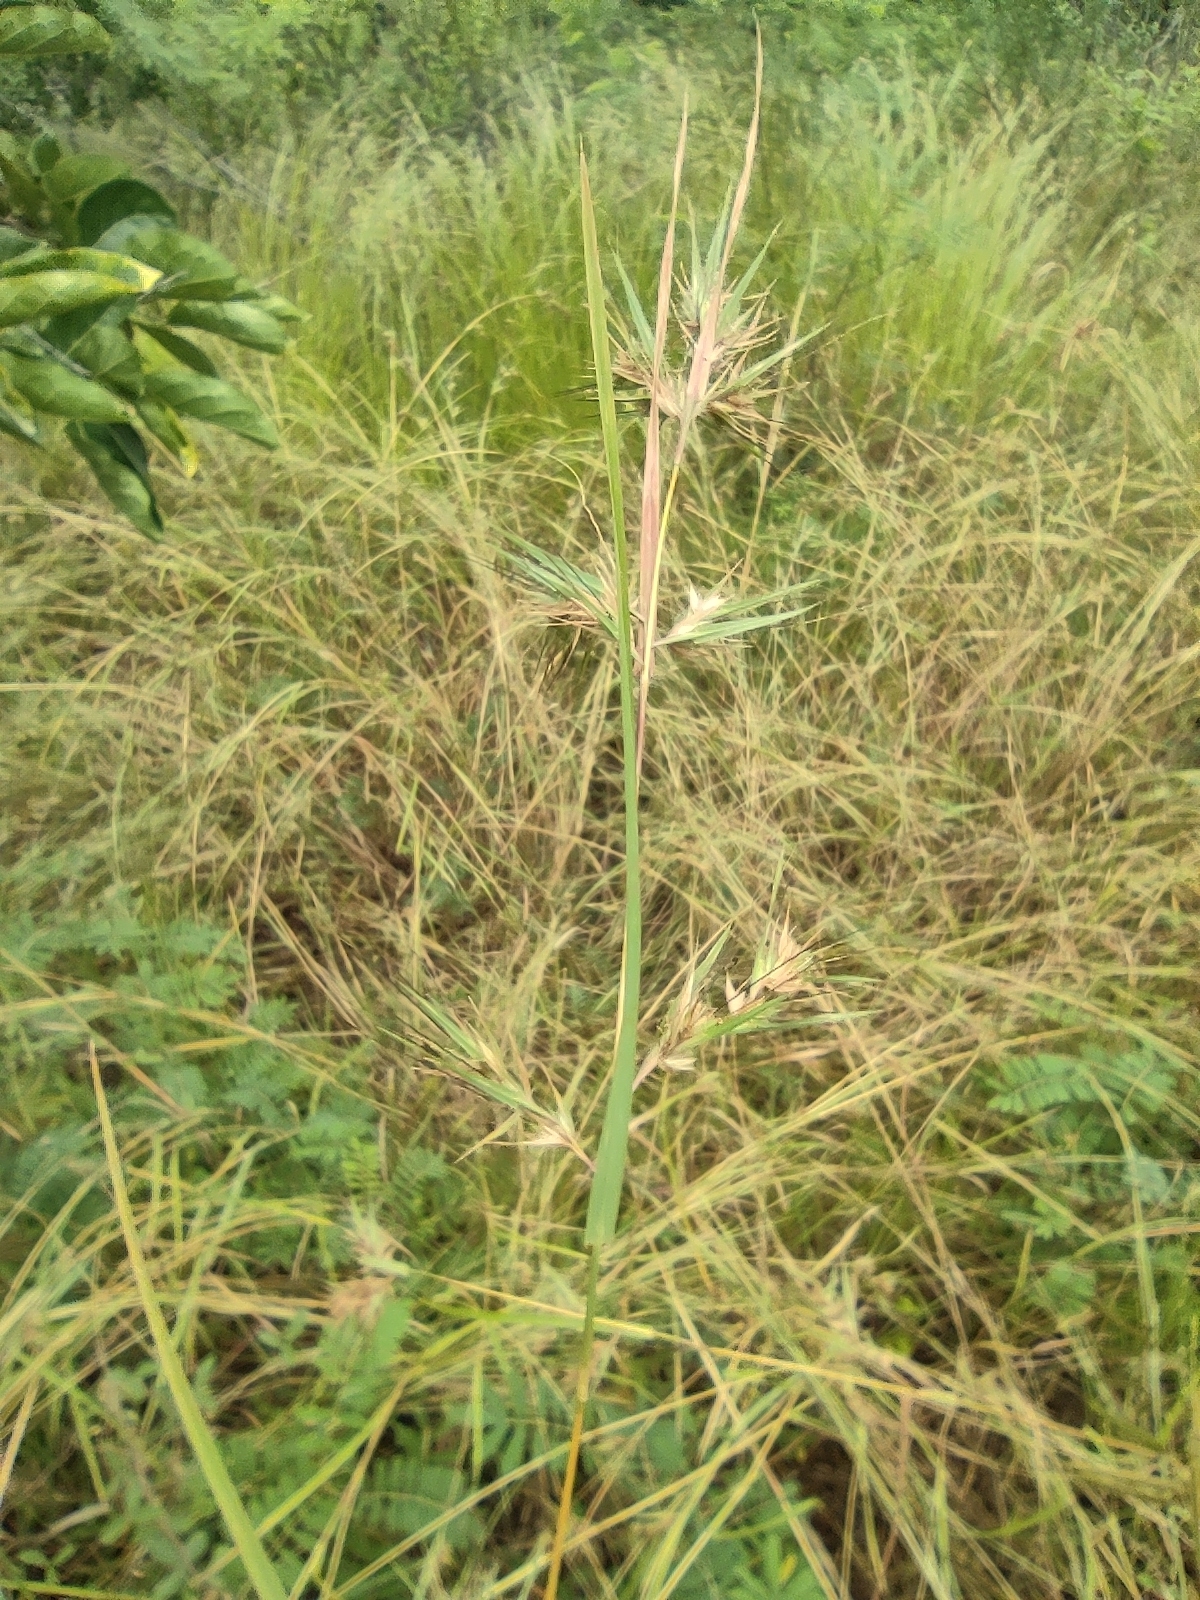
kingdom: Plantae
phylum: Tracheophyta
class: Liliopsida
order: Poales
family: Poaceae
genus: Themeda
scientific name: Themeda quadrivalvis
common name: Kangaroo grass
